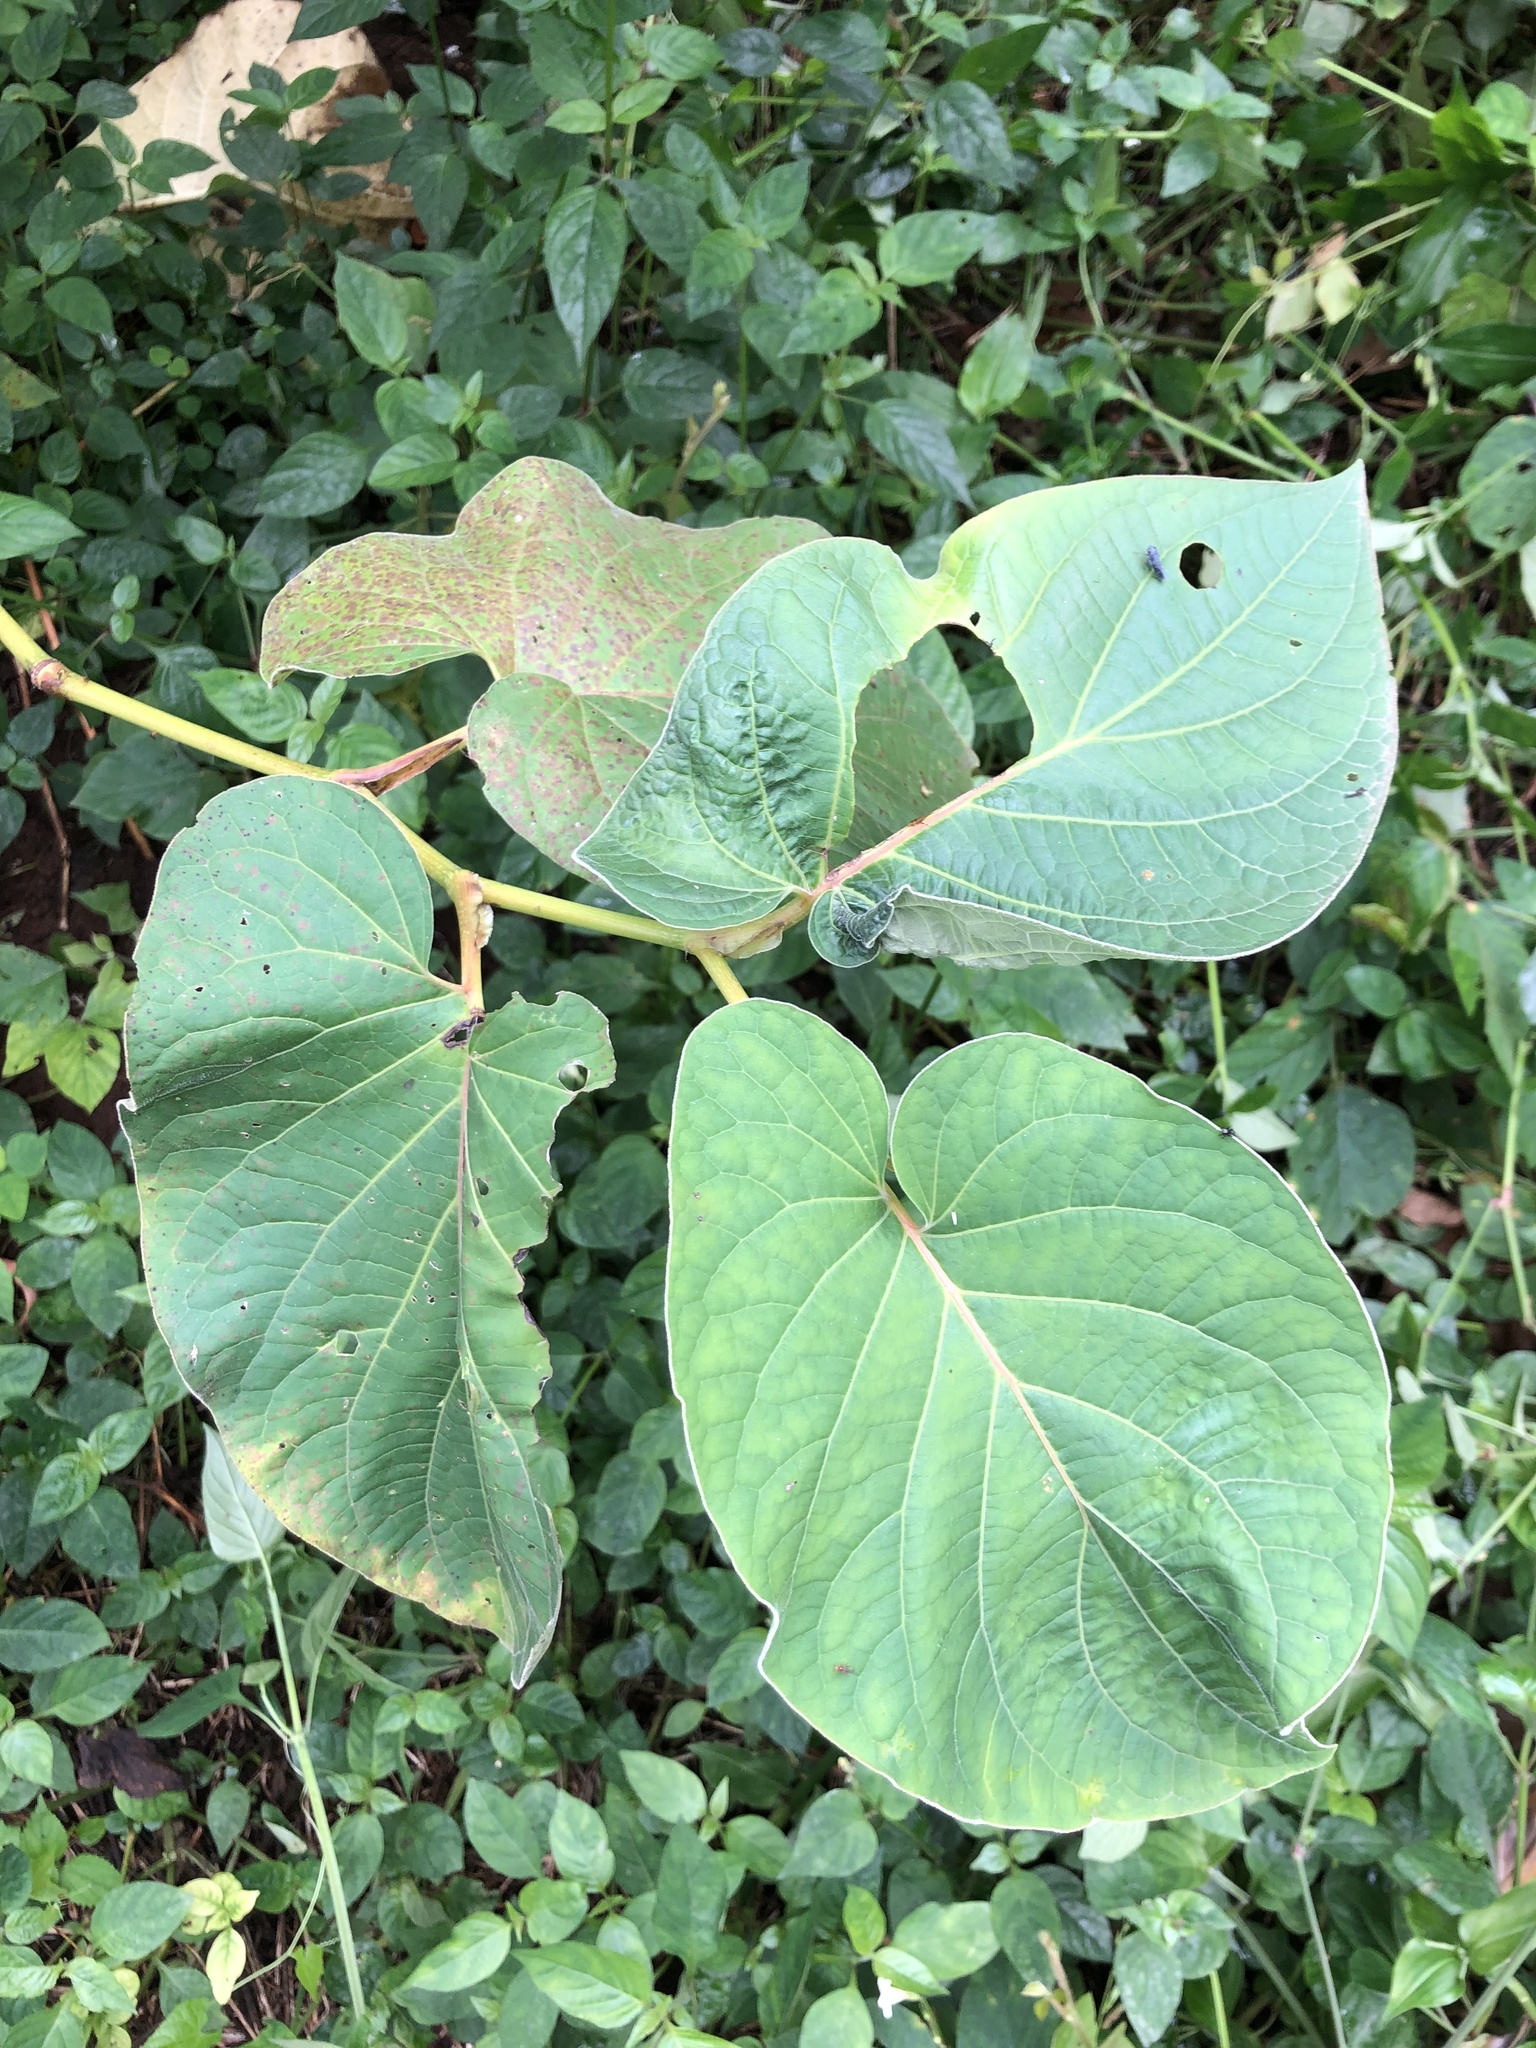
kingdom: Plantae
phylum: Tracheophyta
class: Magnoliopsida
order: Piperales
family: Piperaceae
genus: Piper
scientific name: Piper auritum
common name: Vera cruz pepper
